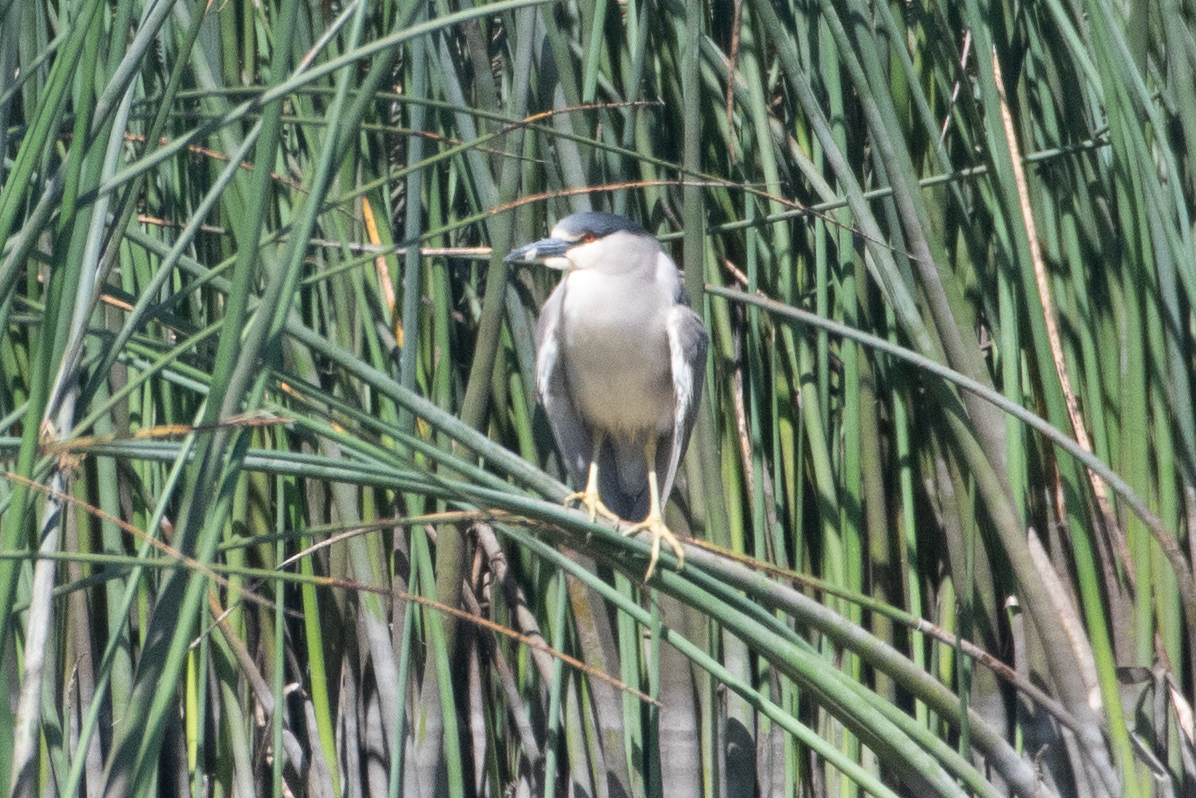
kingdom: Animalia
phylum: Chordata
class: Aves
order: Pelecaniformes
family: Ardeidae
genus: Nycticorax
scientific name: Nycticorax nycticorax
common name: Black-crowned night heron
